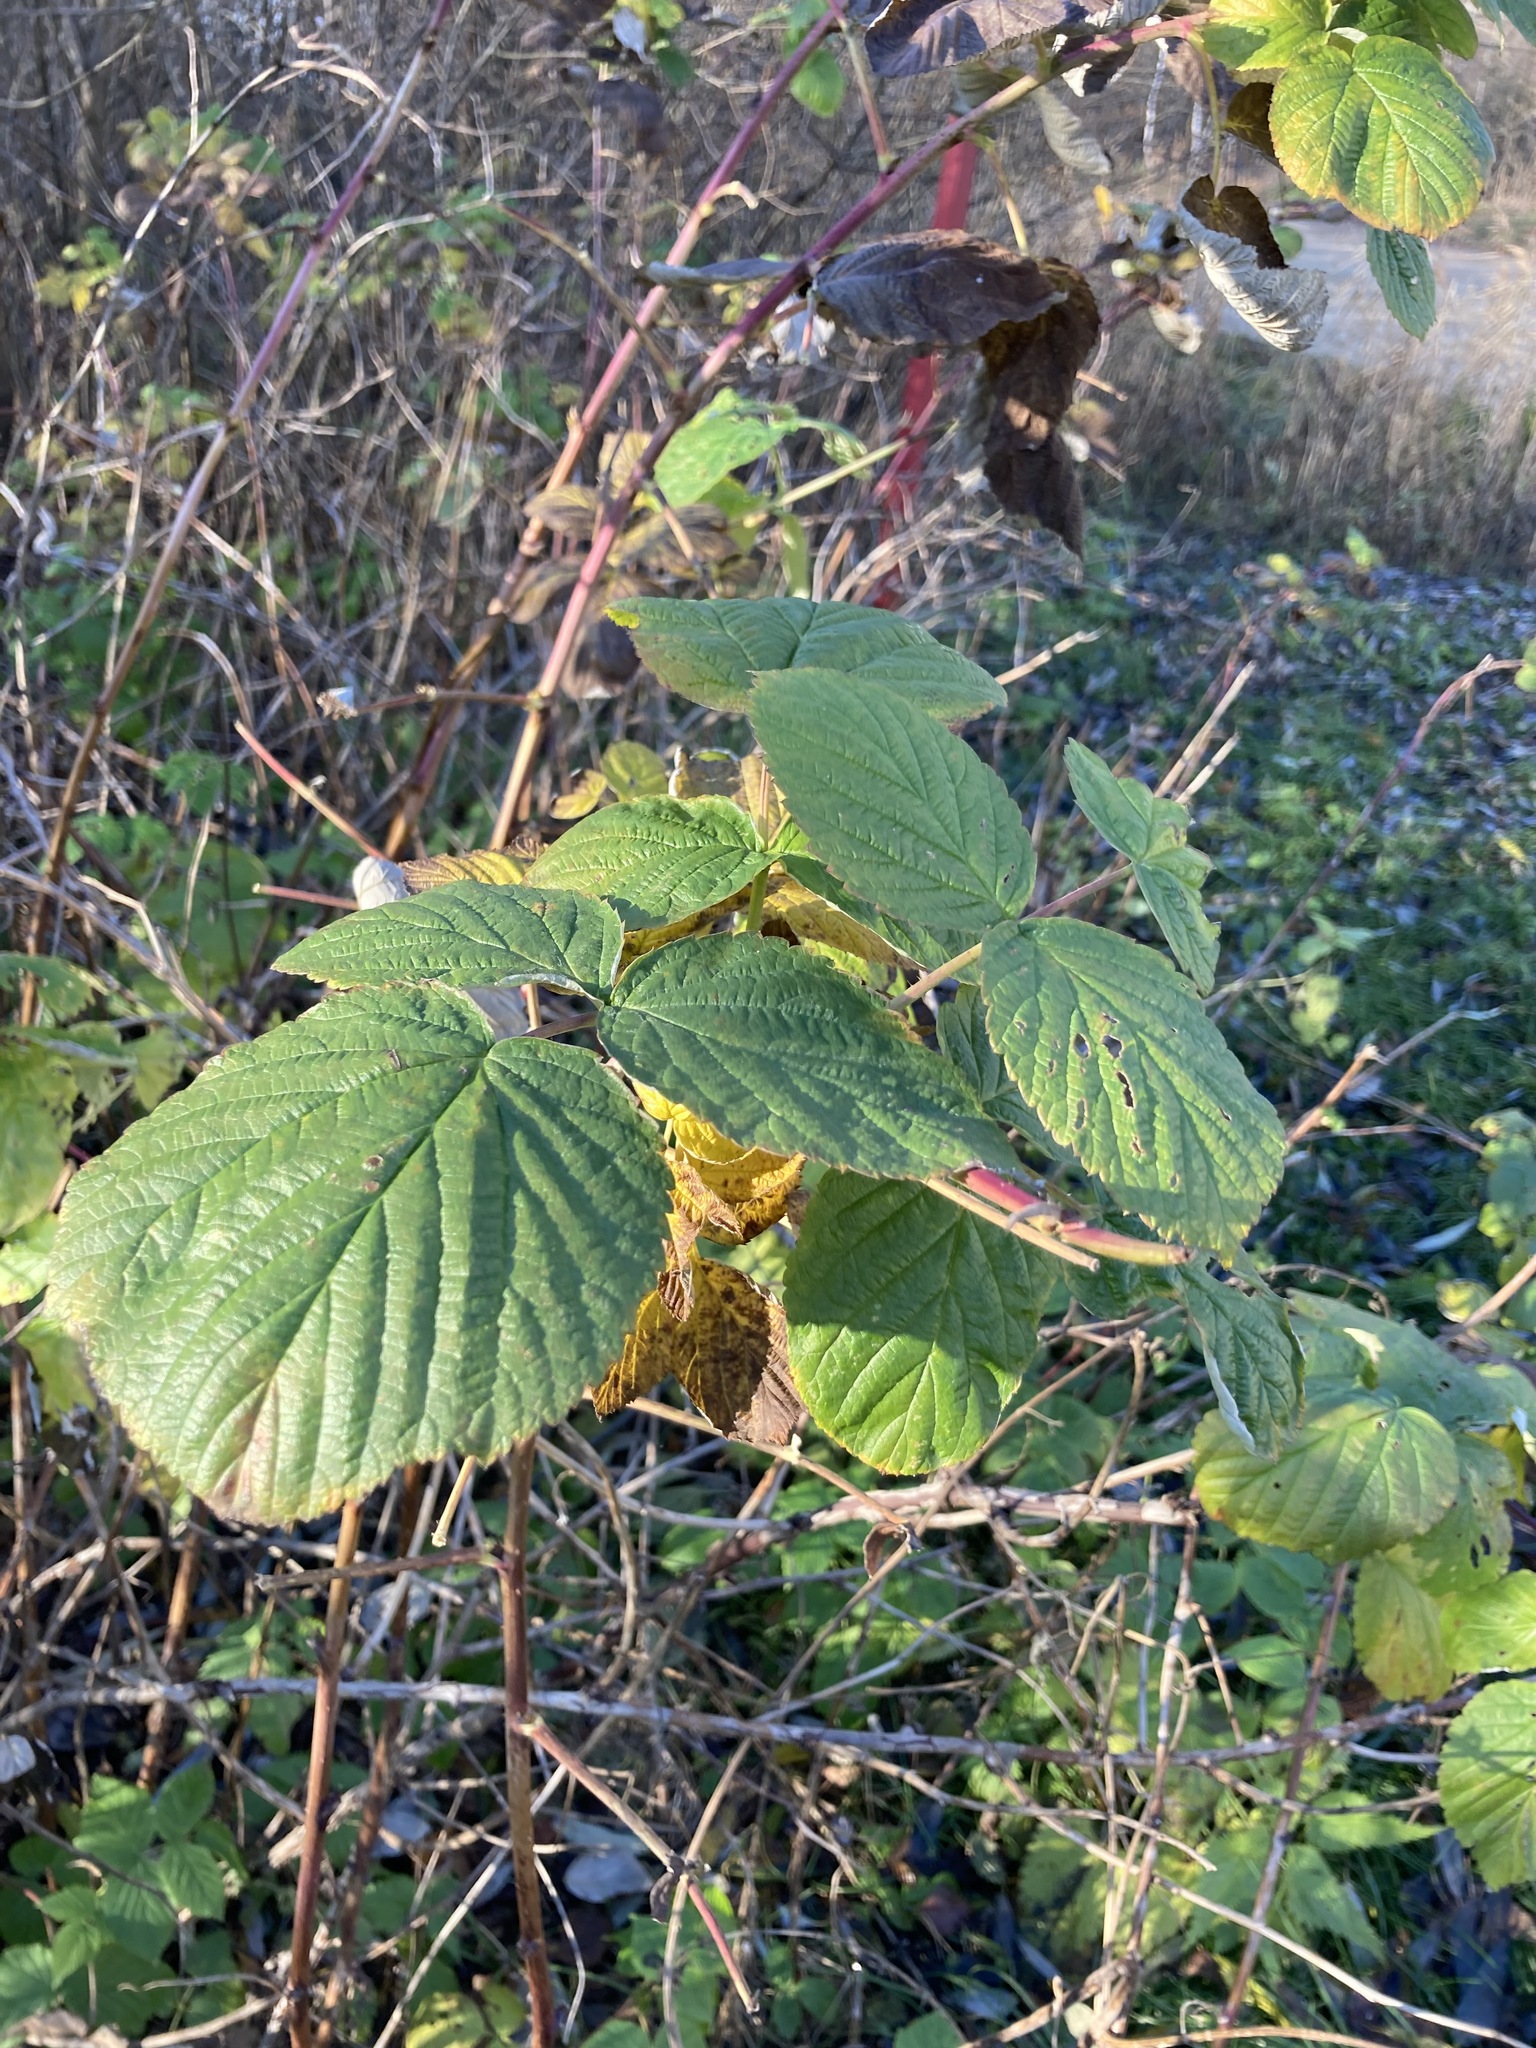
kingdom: Plantae
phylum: Tracheophyta
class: Magnoliopsida
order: Rosales
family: Rosaceae
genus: Rubus
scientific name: Rubus idaeus
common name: Raspberry
